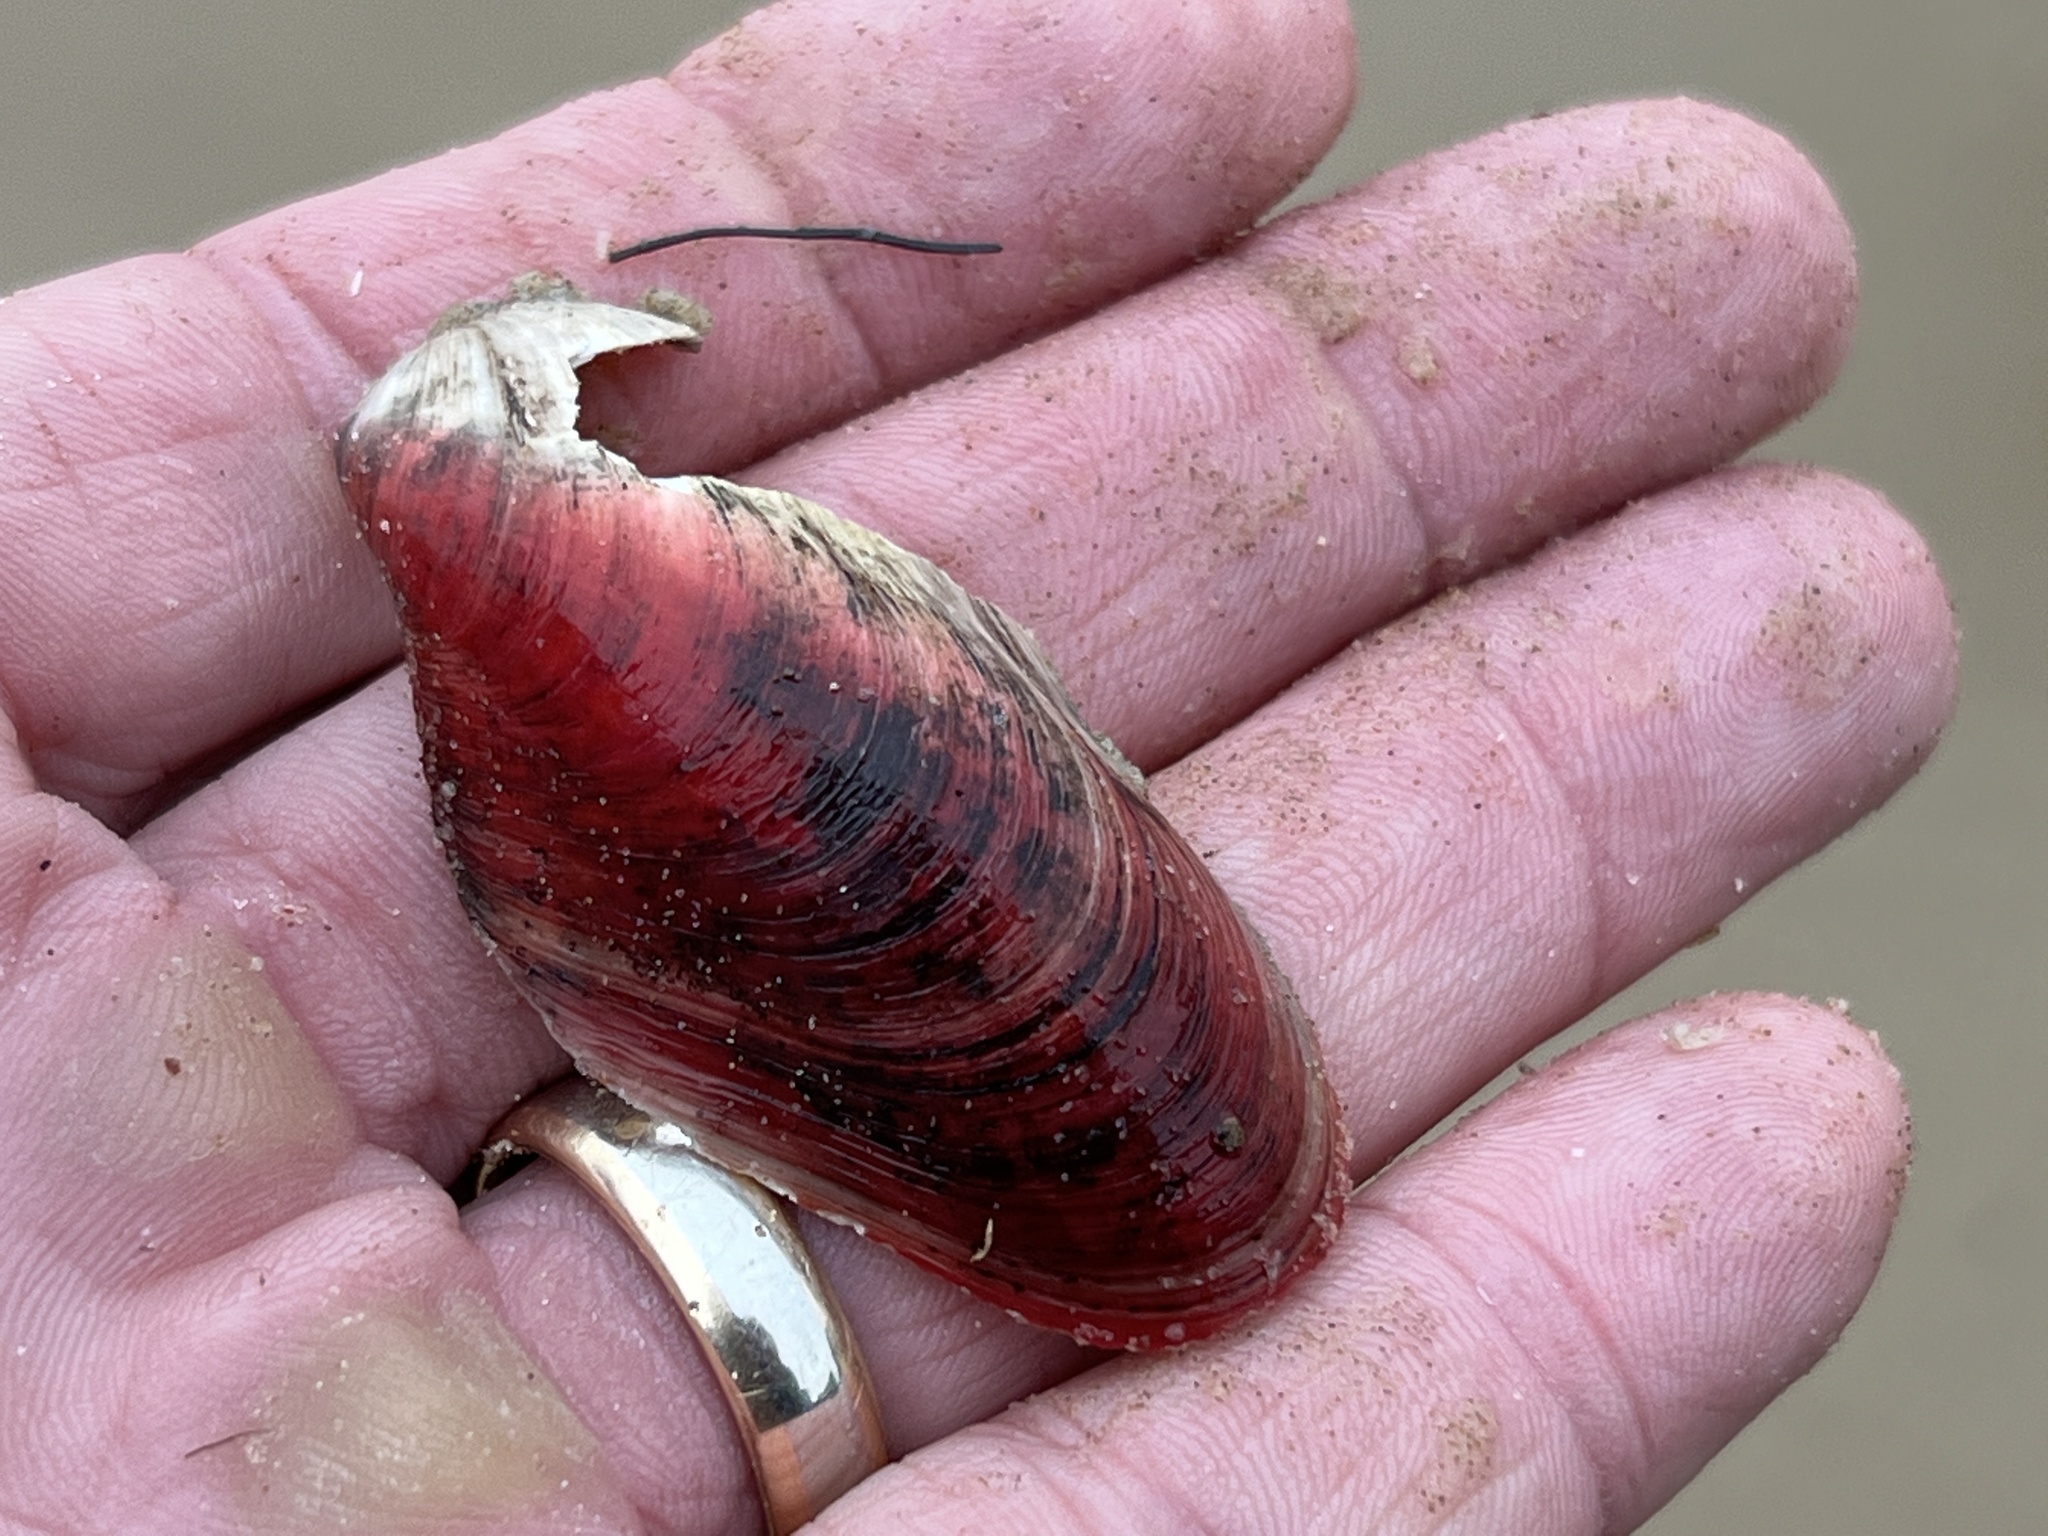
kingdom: Animalia
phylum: Mollusca
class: Bivalvia
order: Mytilida
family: Mytilidae
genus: Modiolus
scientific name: Modiolus americanus
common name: Tulip mussel
